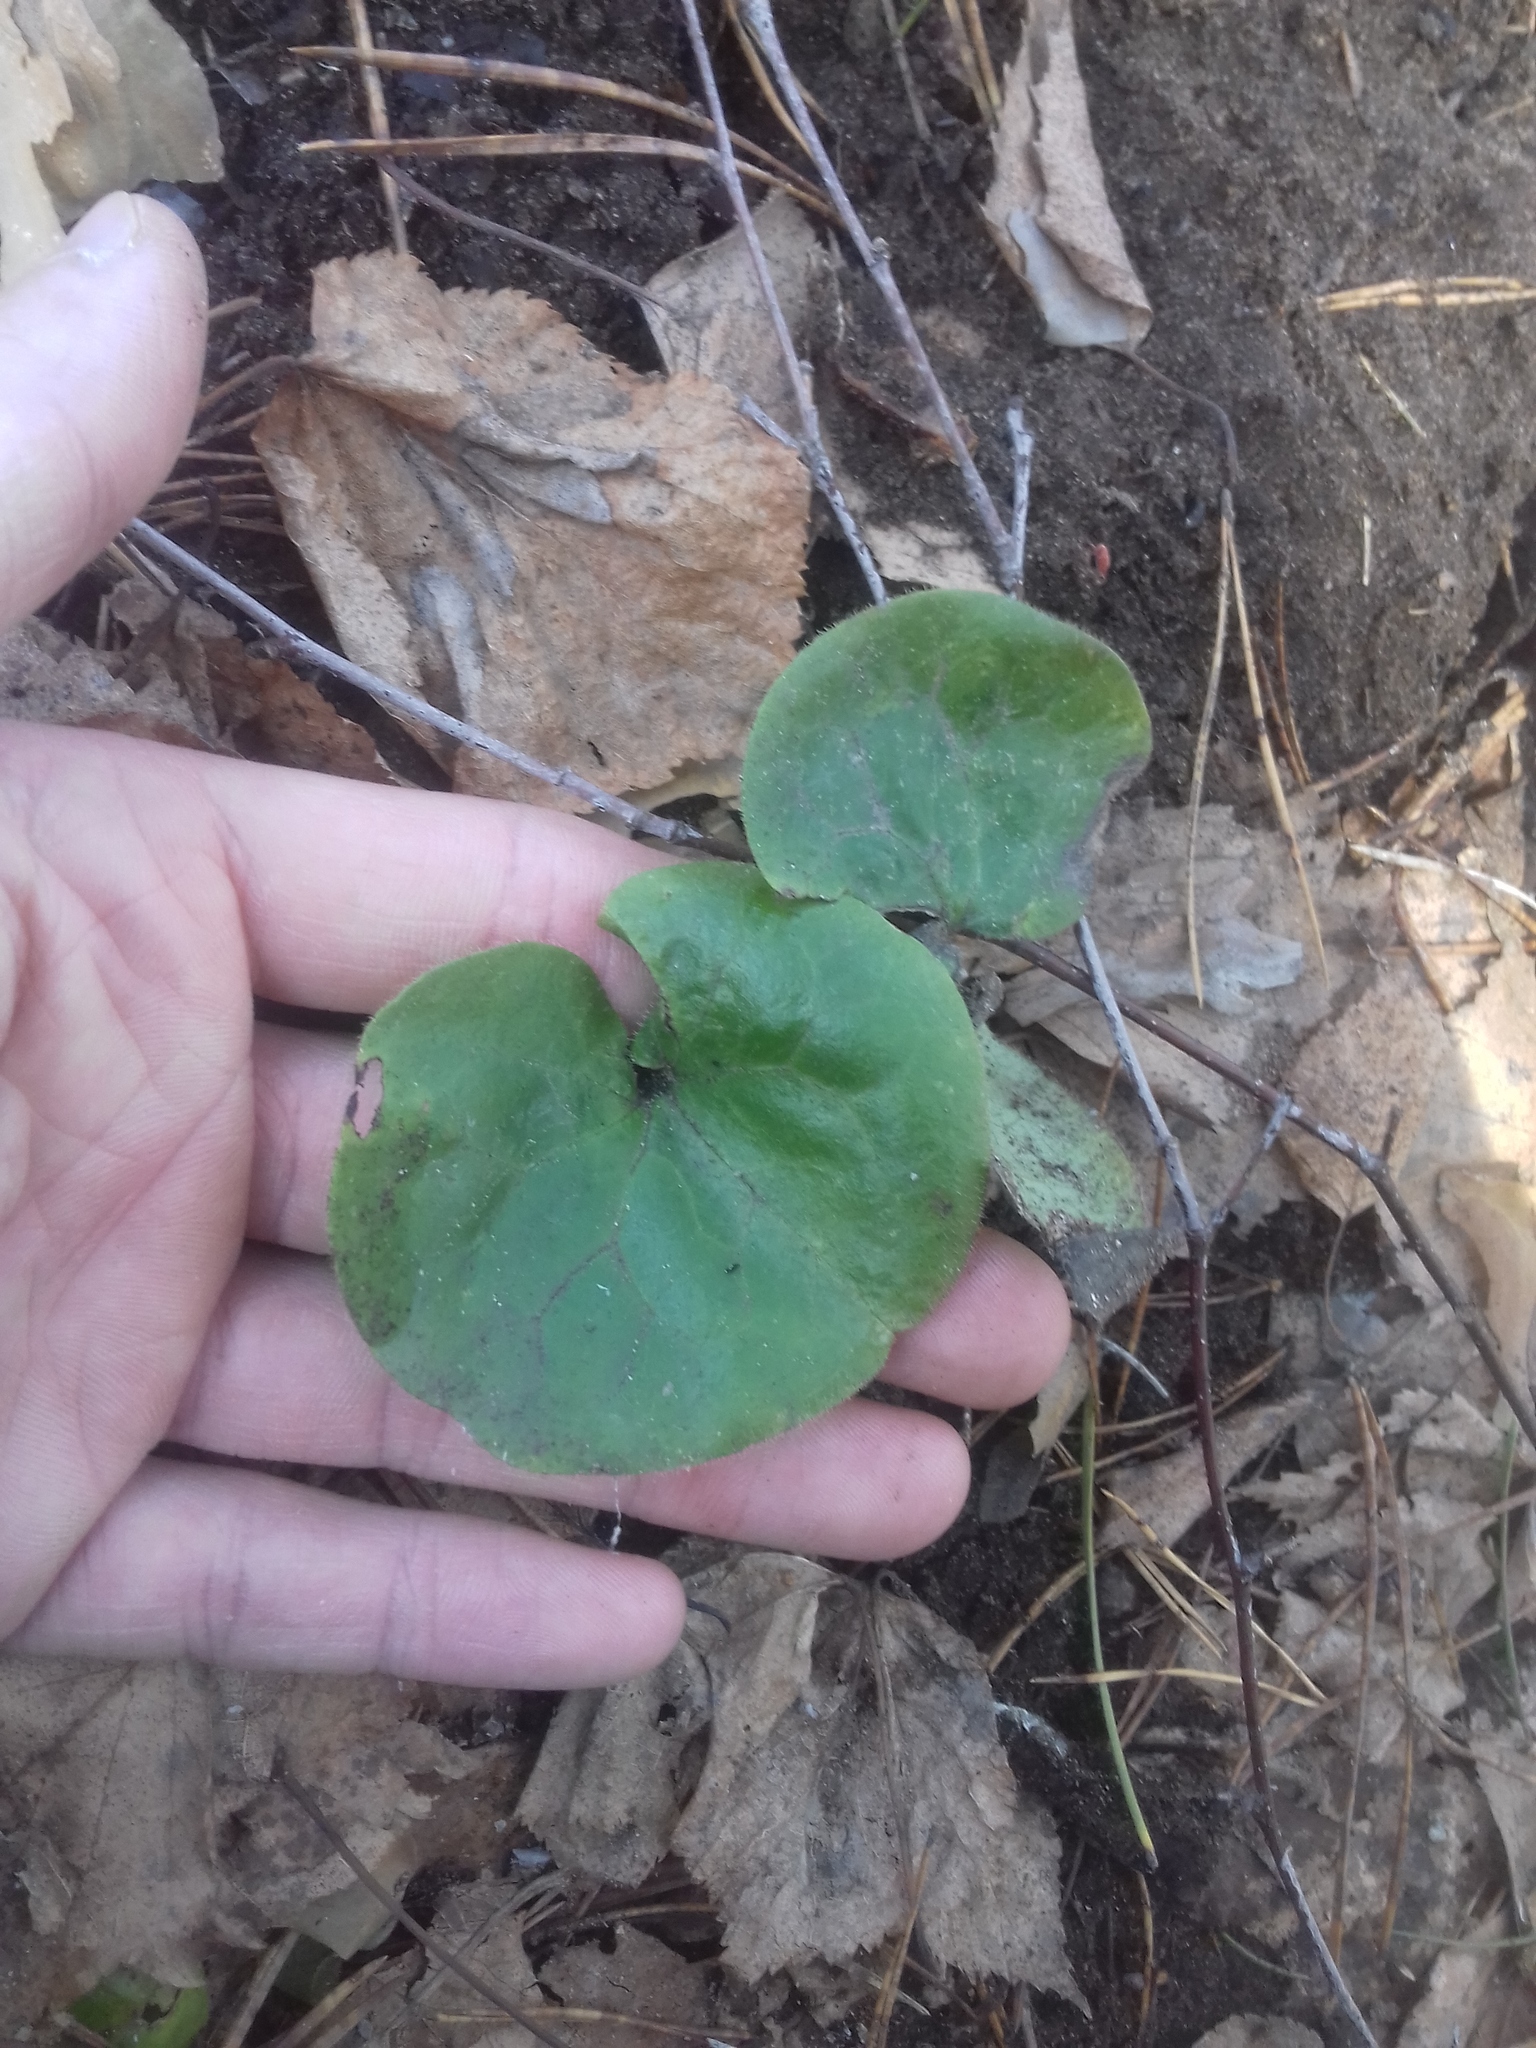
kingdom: Plantae
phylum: Tracheophyta
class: Magnoliopsida
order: Piperales
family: Aristolochiaceae
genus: Asarum
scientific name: Asarum europaeum
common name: Asarabacca
